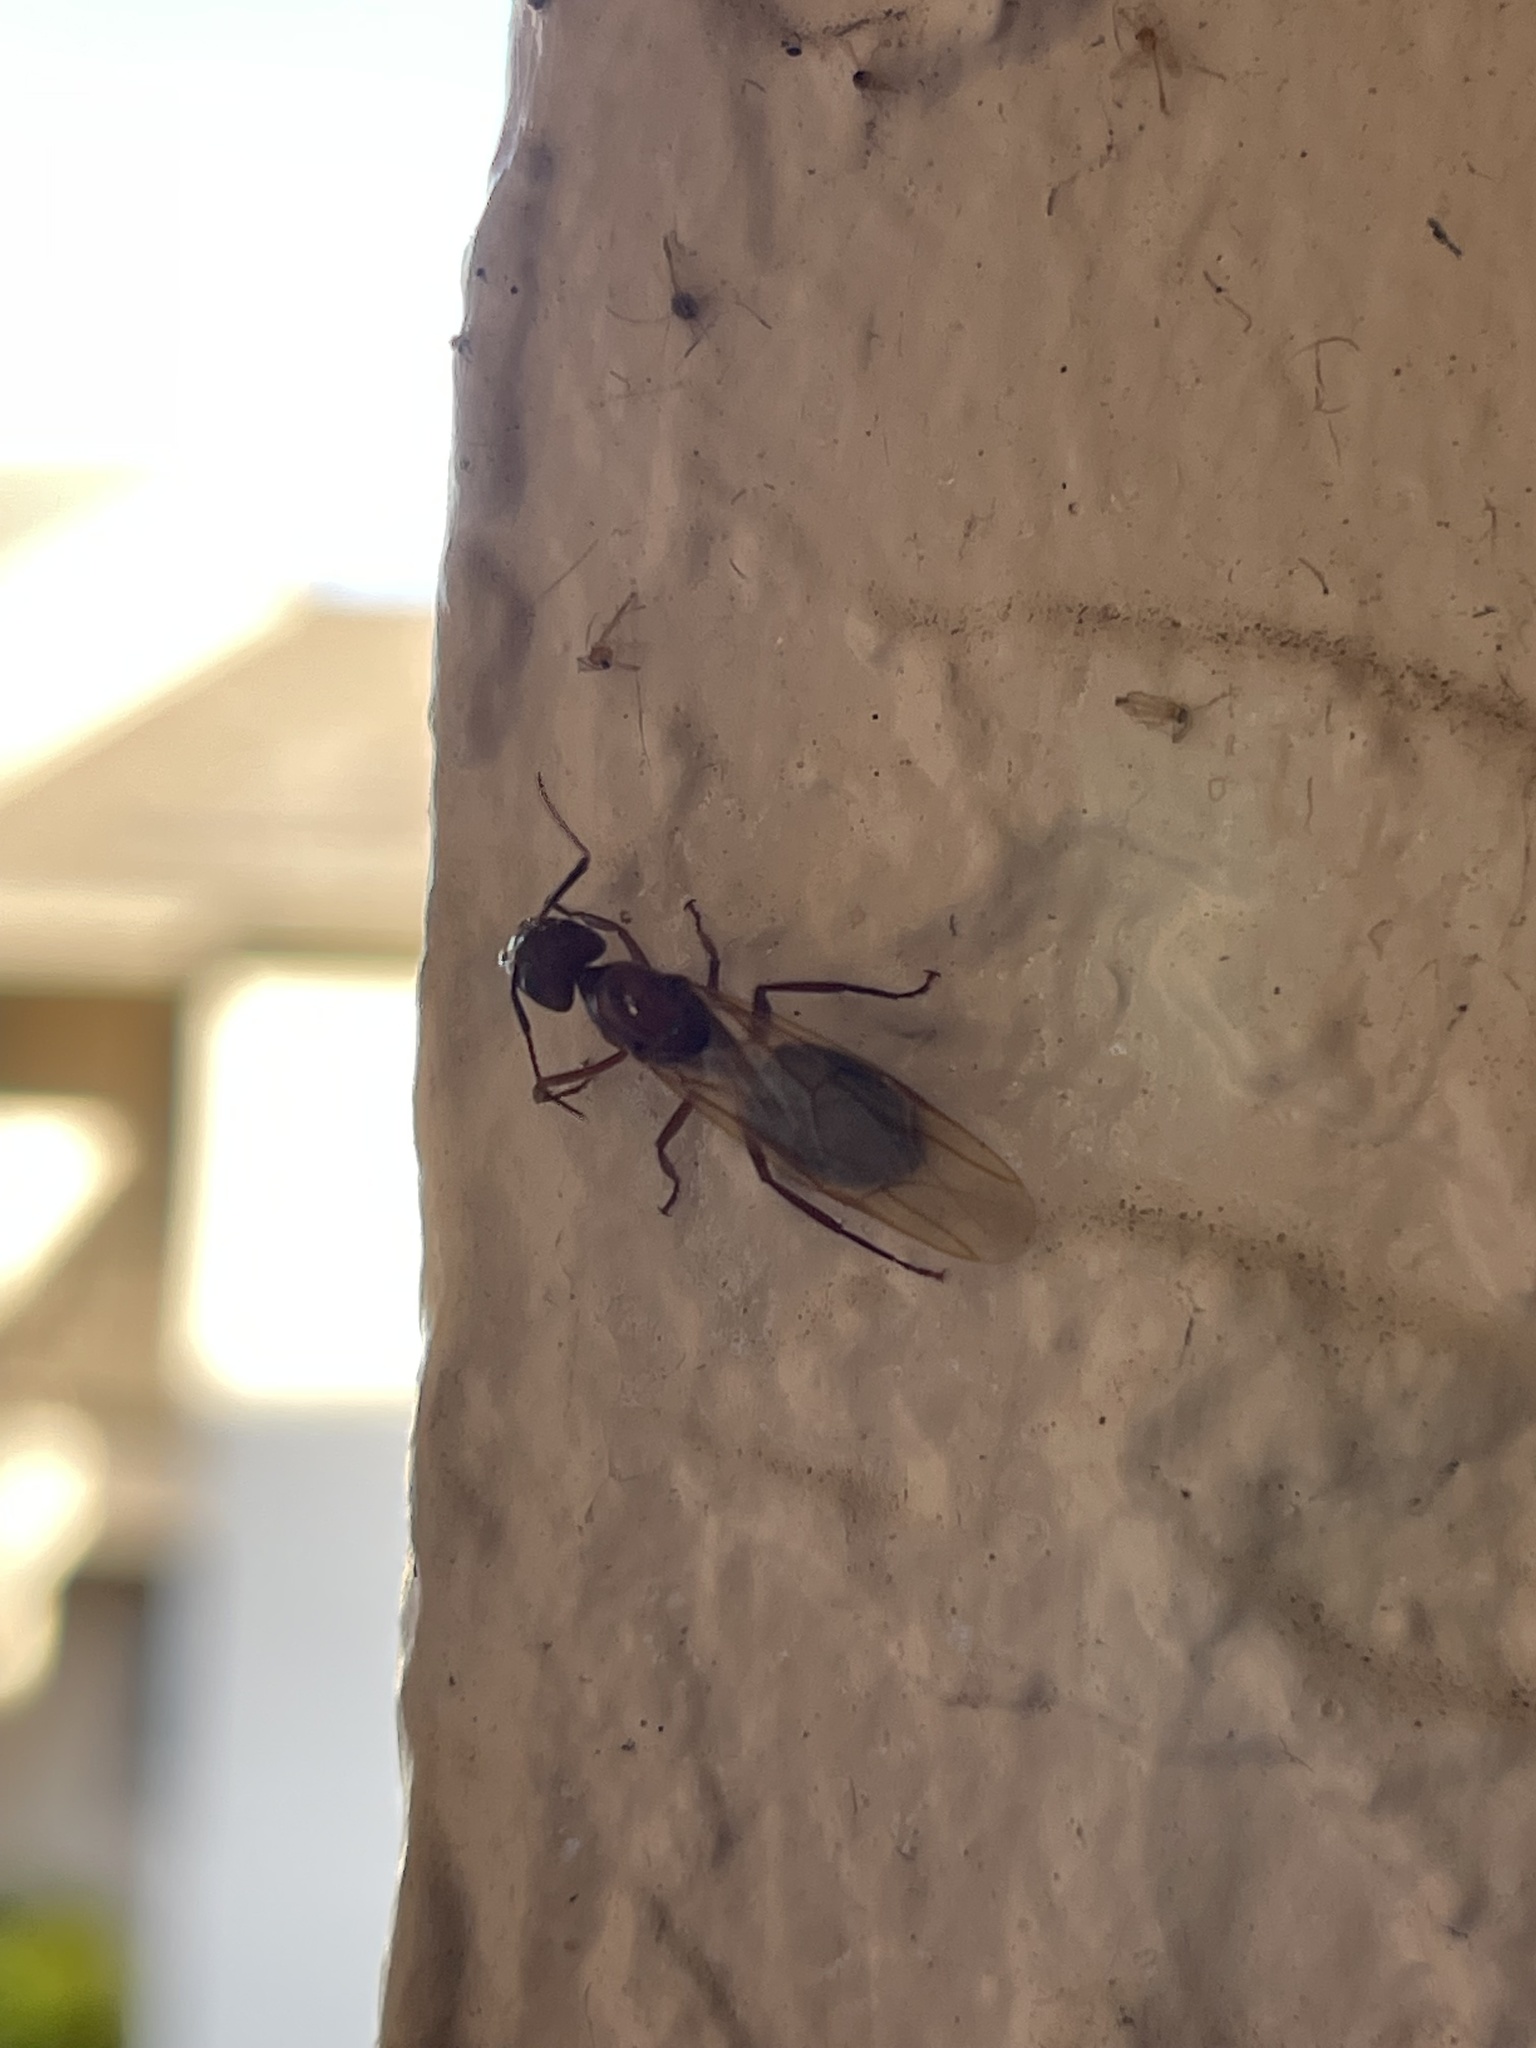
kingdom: Animalia
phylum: Arthropoda
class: Insecta
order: Hymenoptera
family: Formicidae
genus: Camponotus
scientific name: Camponotus floridanus
